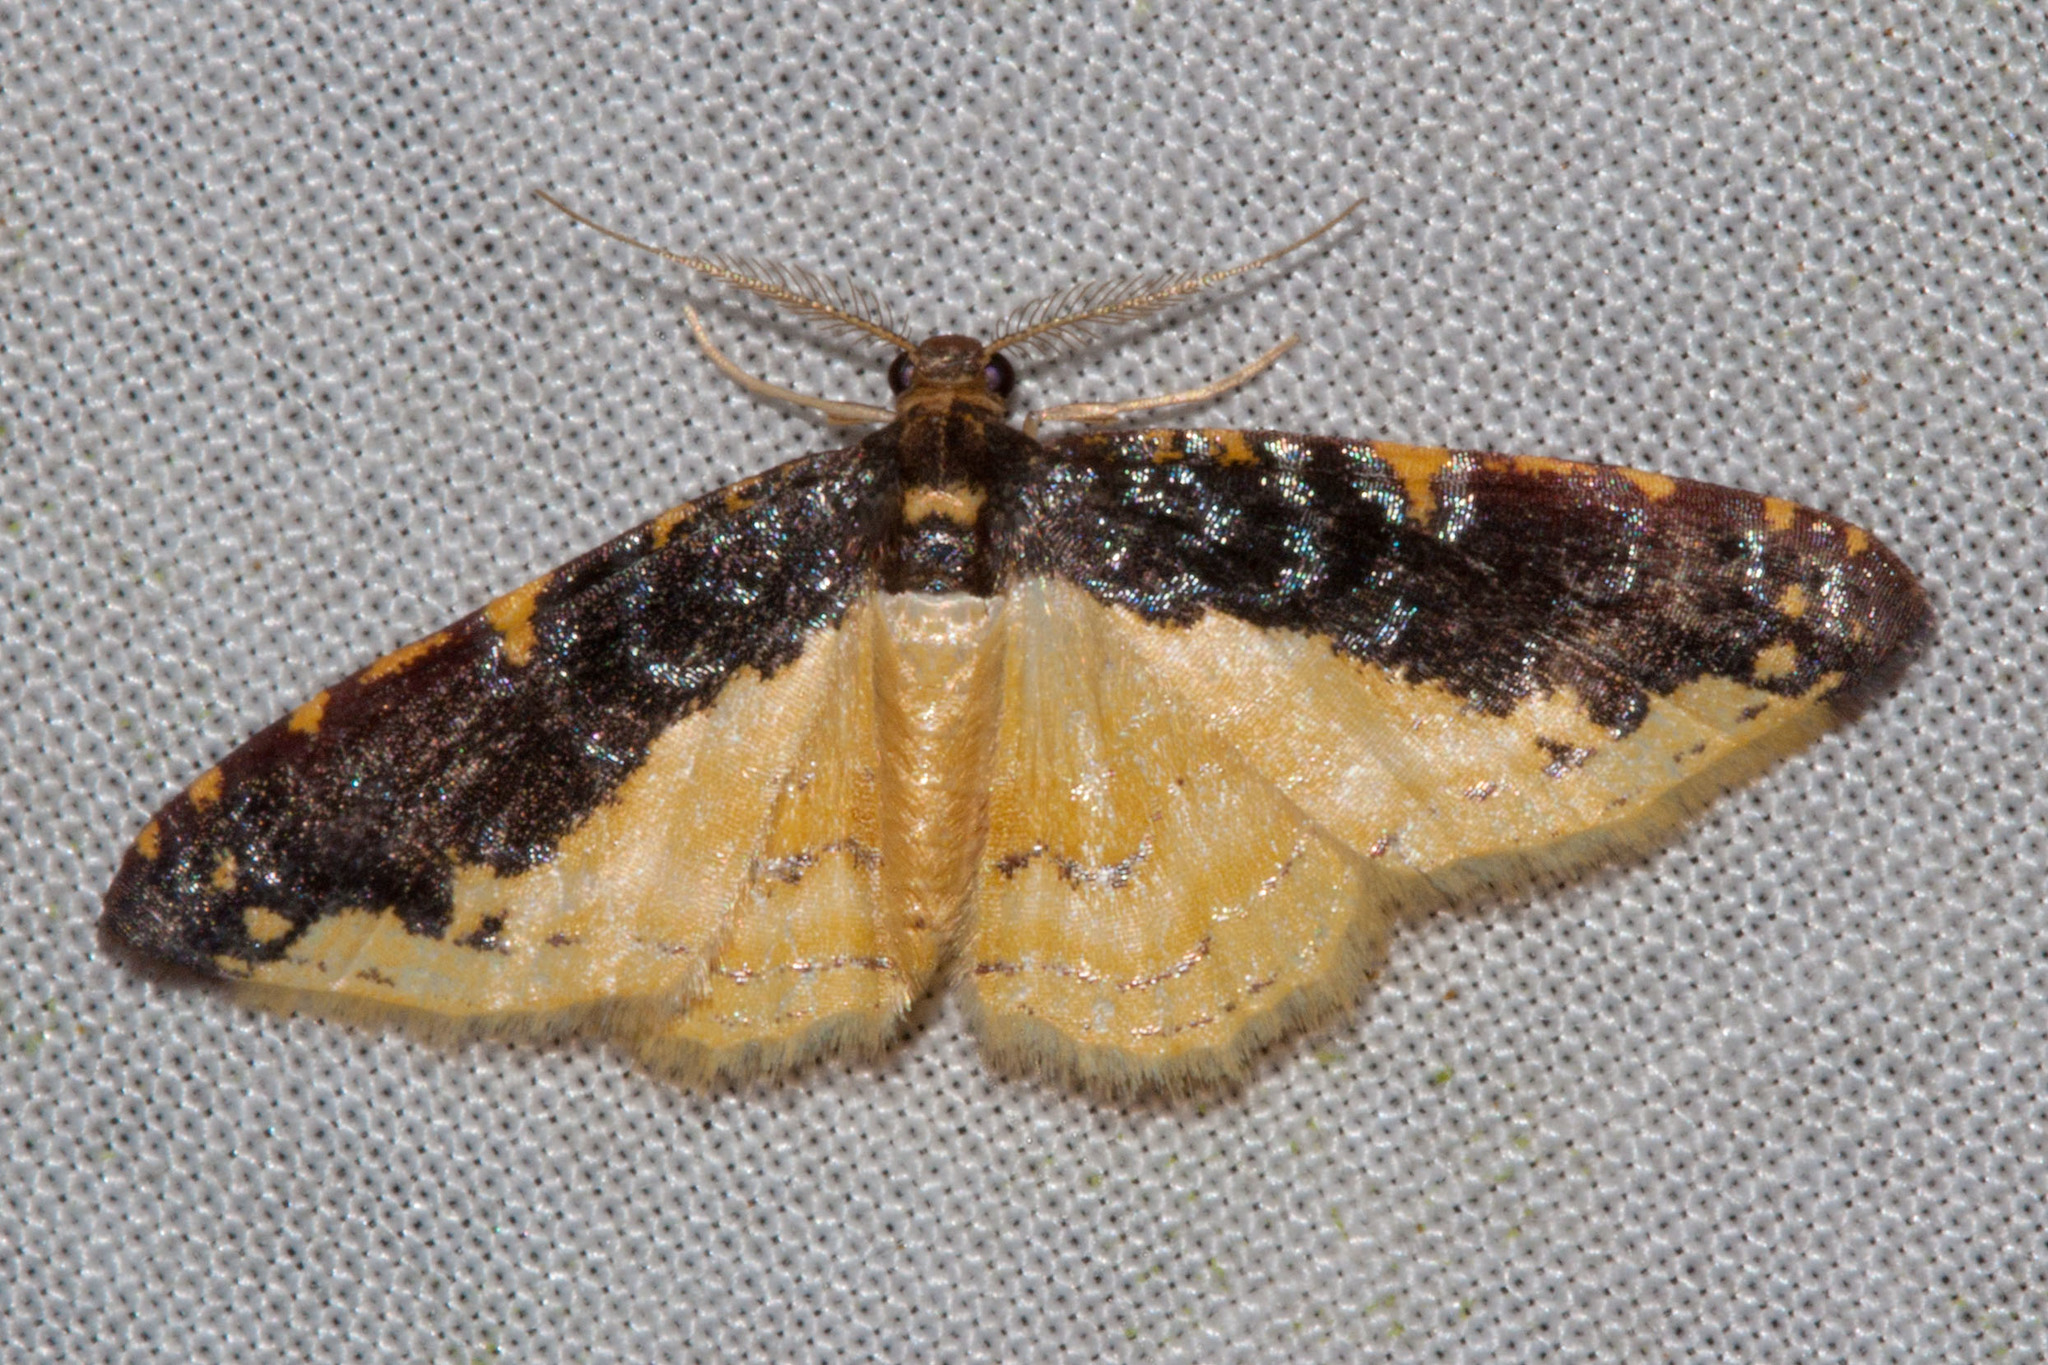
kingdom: Animalia
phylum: Arthropoda
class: Insecta
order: Lepidoptera
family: Geometridae
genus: Eois
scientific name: Eois tertulia
